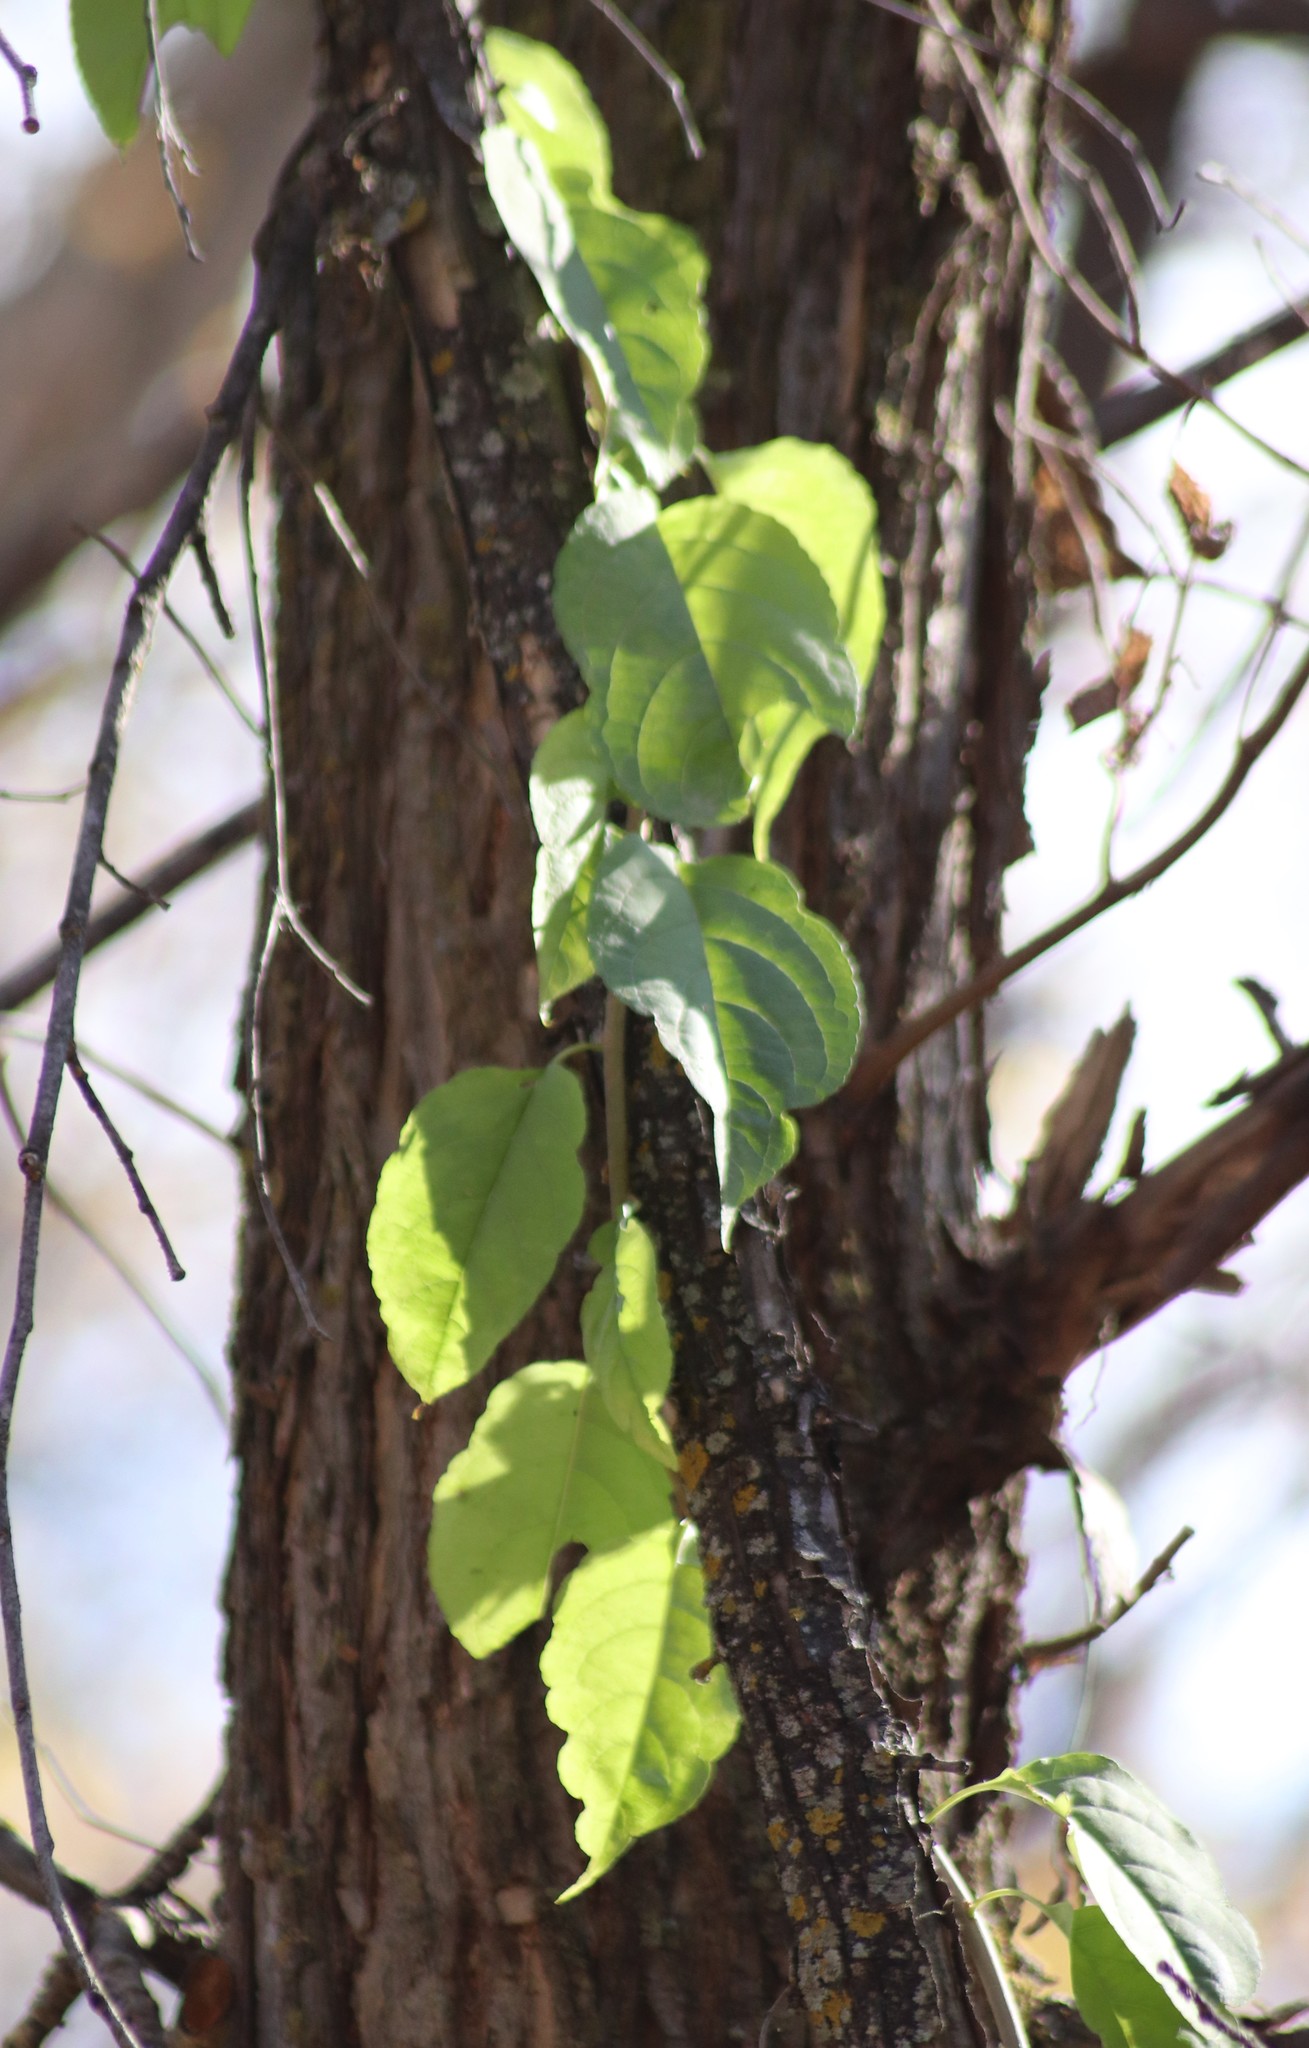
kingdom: Plantae
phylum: Tracheophyta
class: Magnoliopsida
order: Celastrales
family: Celastraceae
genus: Celastrus
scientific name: Celastrus scandens
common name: American bittersweet
